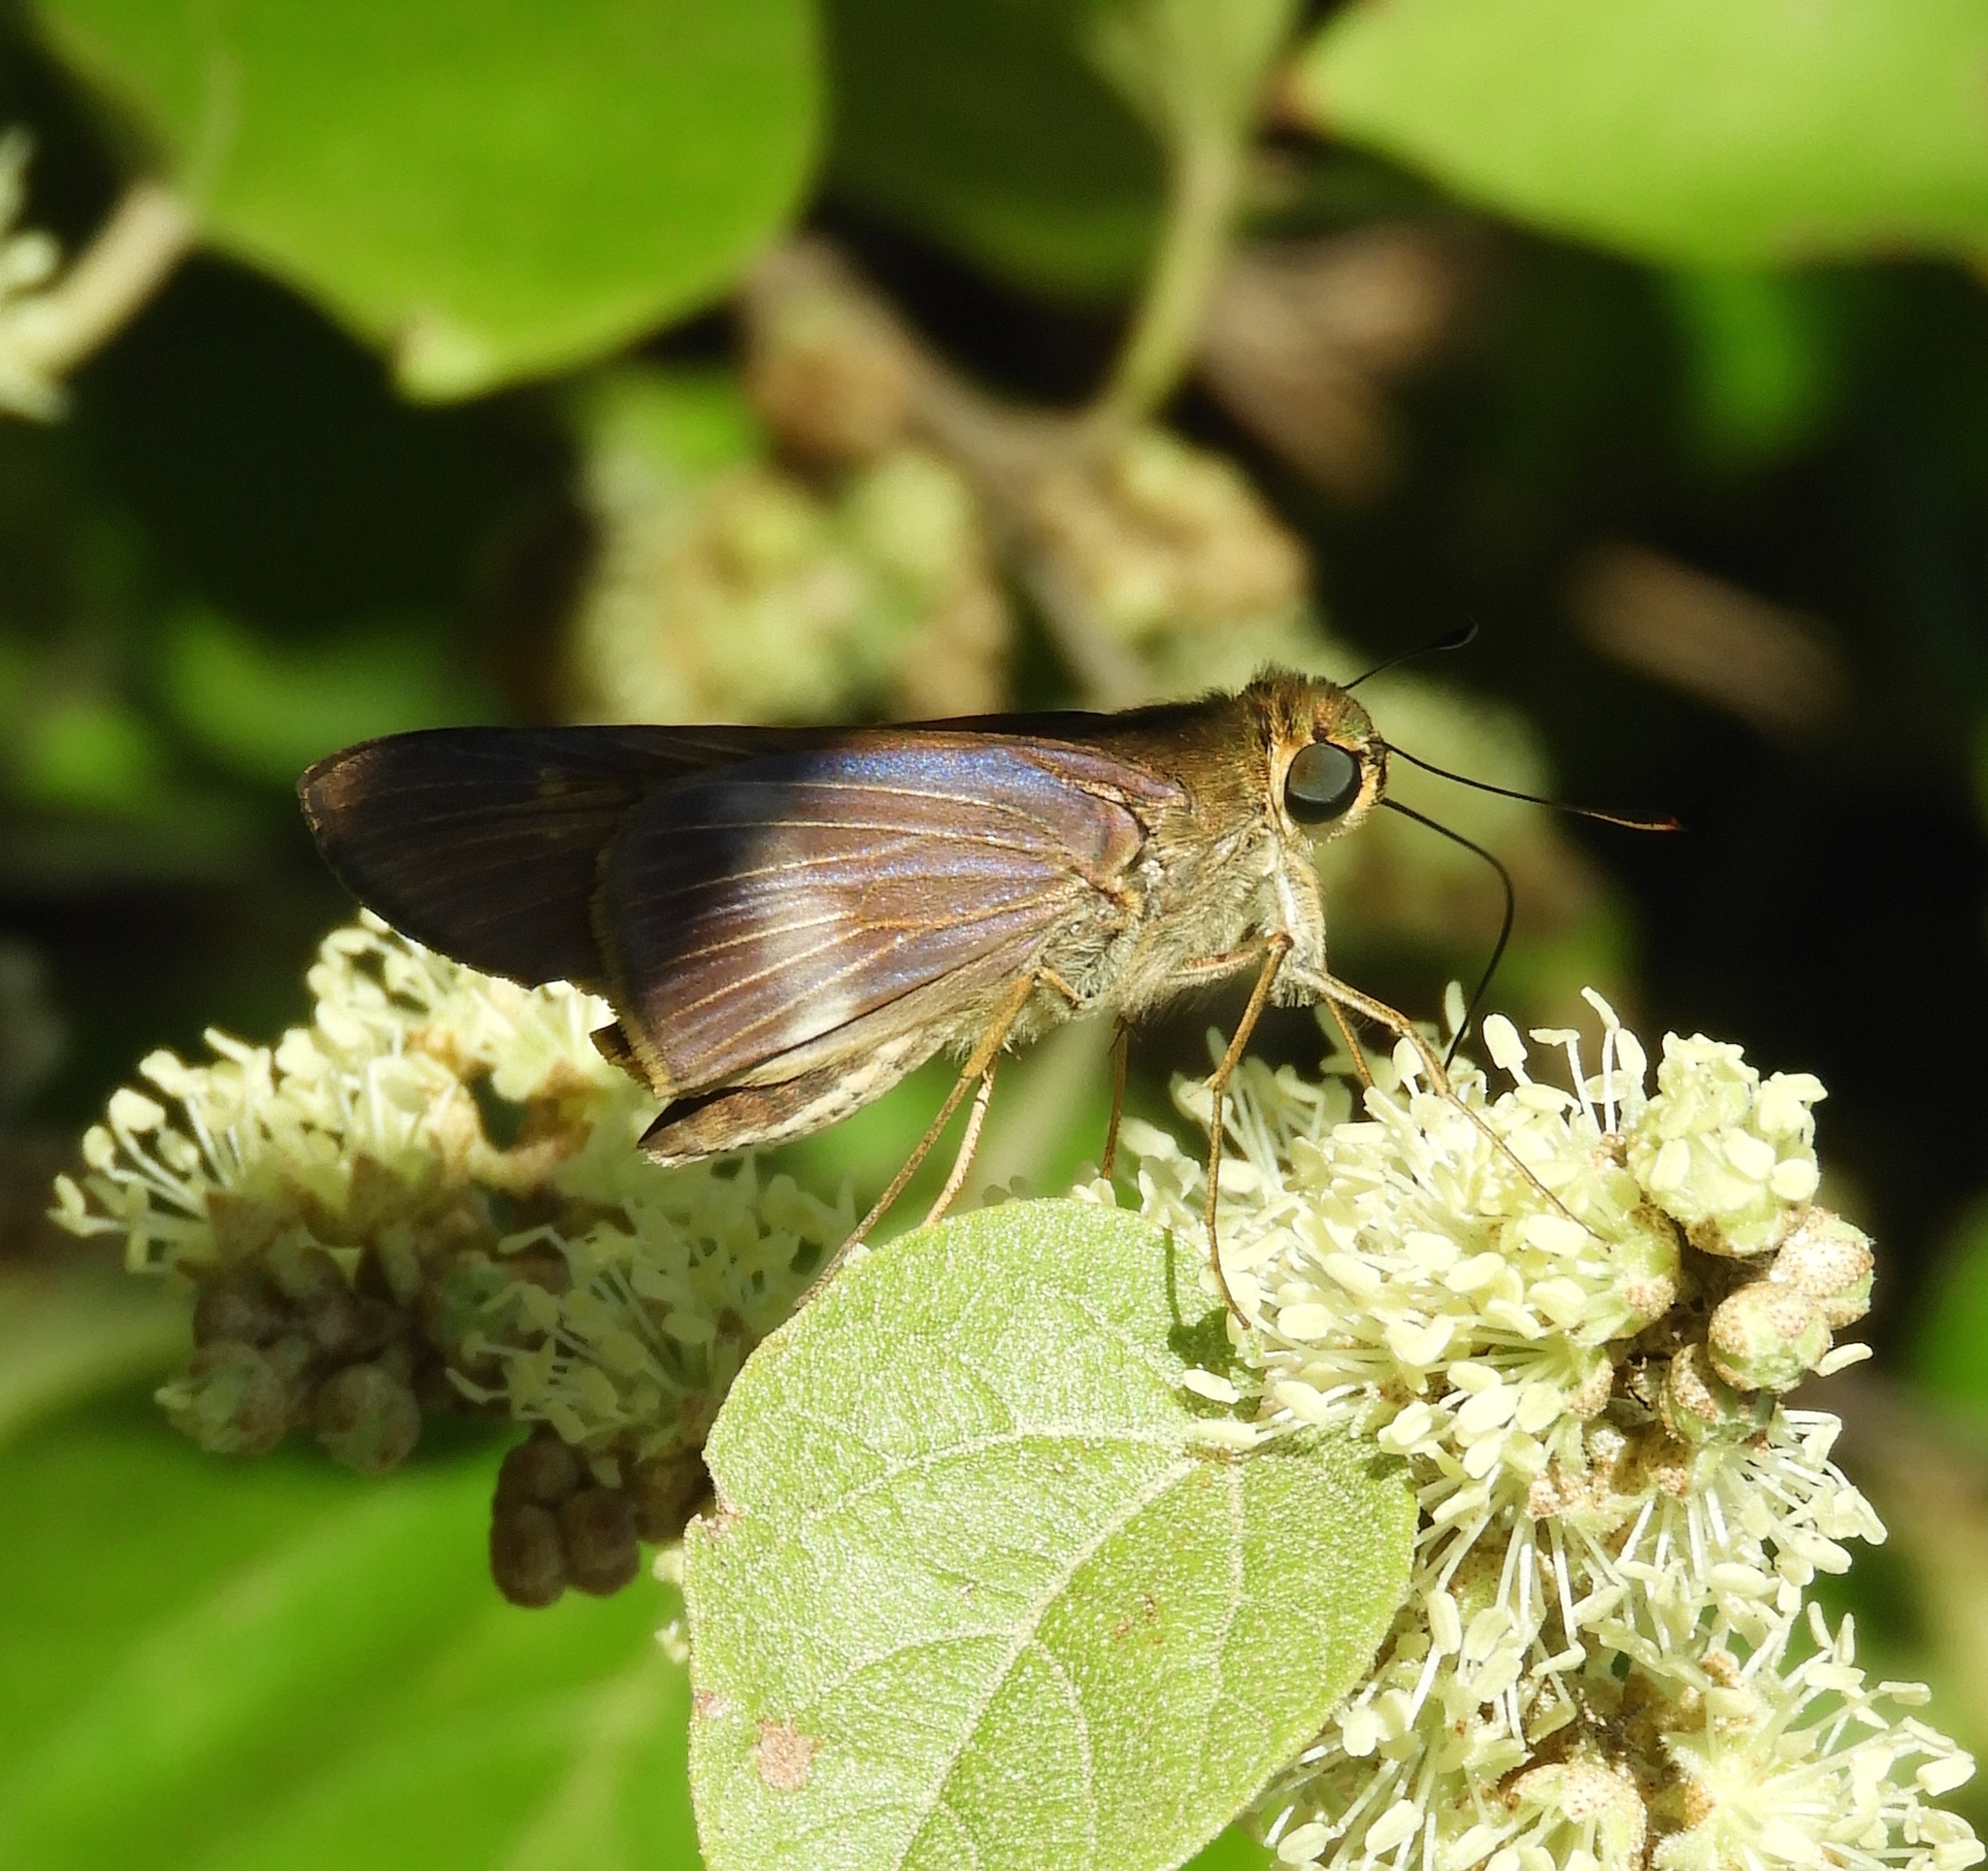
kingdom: Animalia
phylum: Arthropoda
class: Insecta
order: Lepidoptera
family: Hesperiidae
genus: Panoquina
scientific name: Panoquina fusina
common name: Evans' skipper
